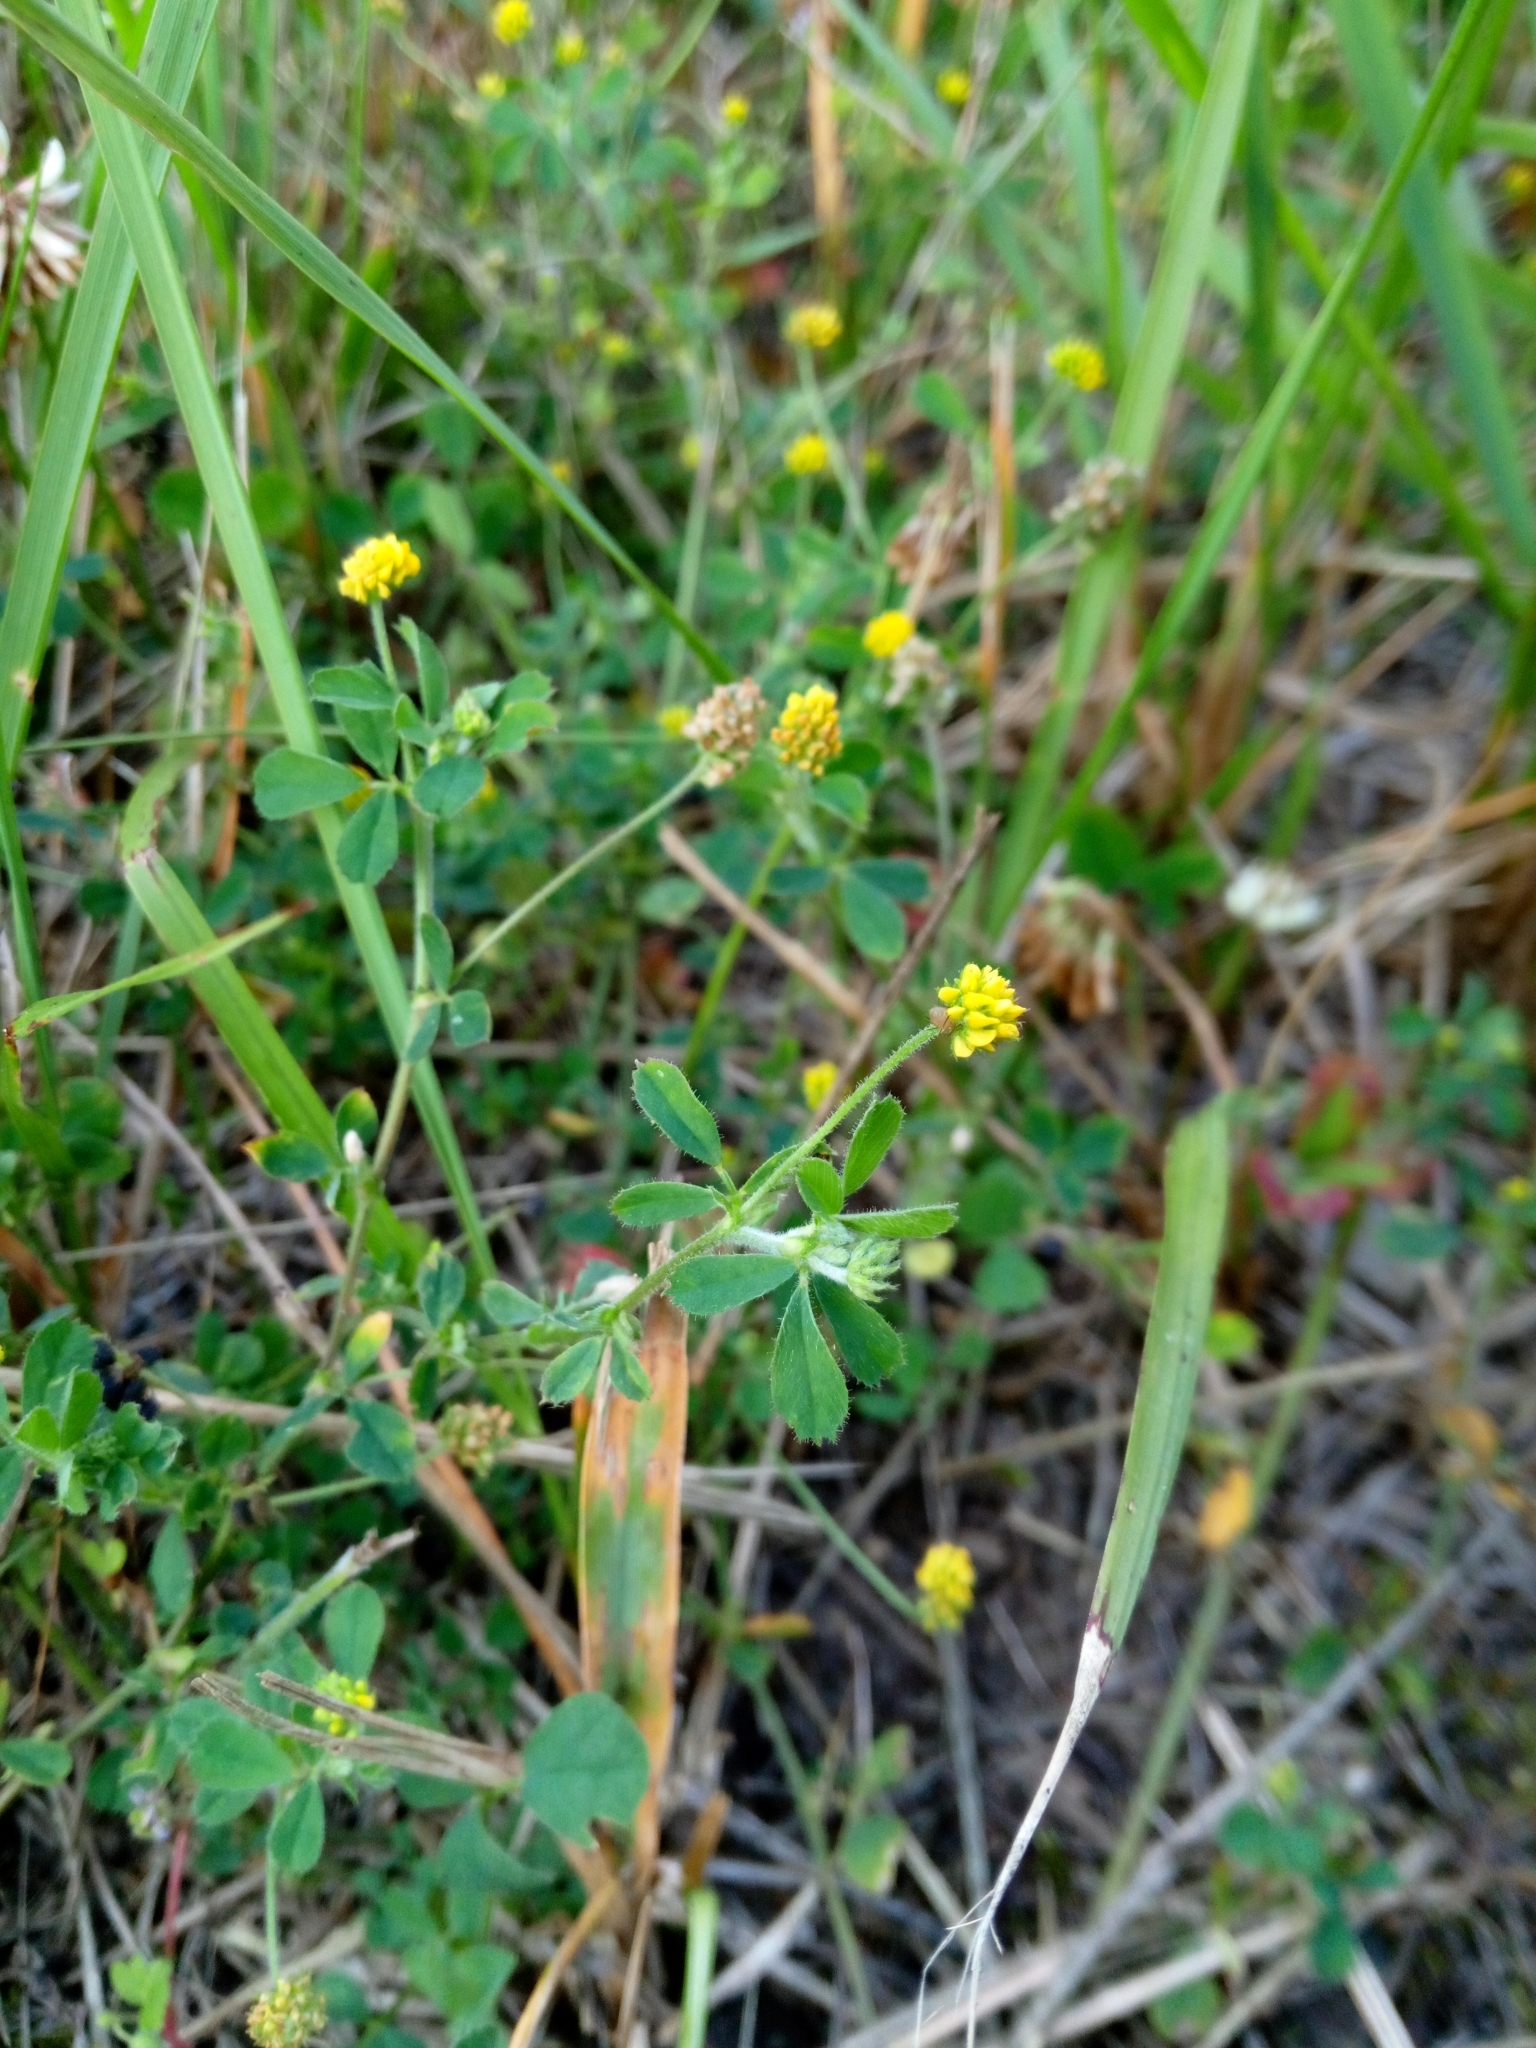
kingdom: Plantae
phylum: Tracheophyta
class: Magnoliopsida
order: Fabales
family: Fabaceae
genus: Medicago
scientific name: Medicago lupulina
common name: Black medick
